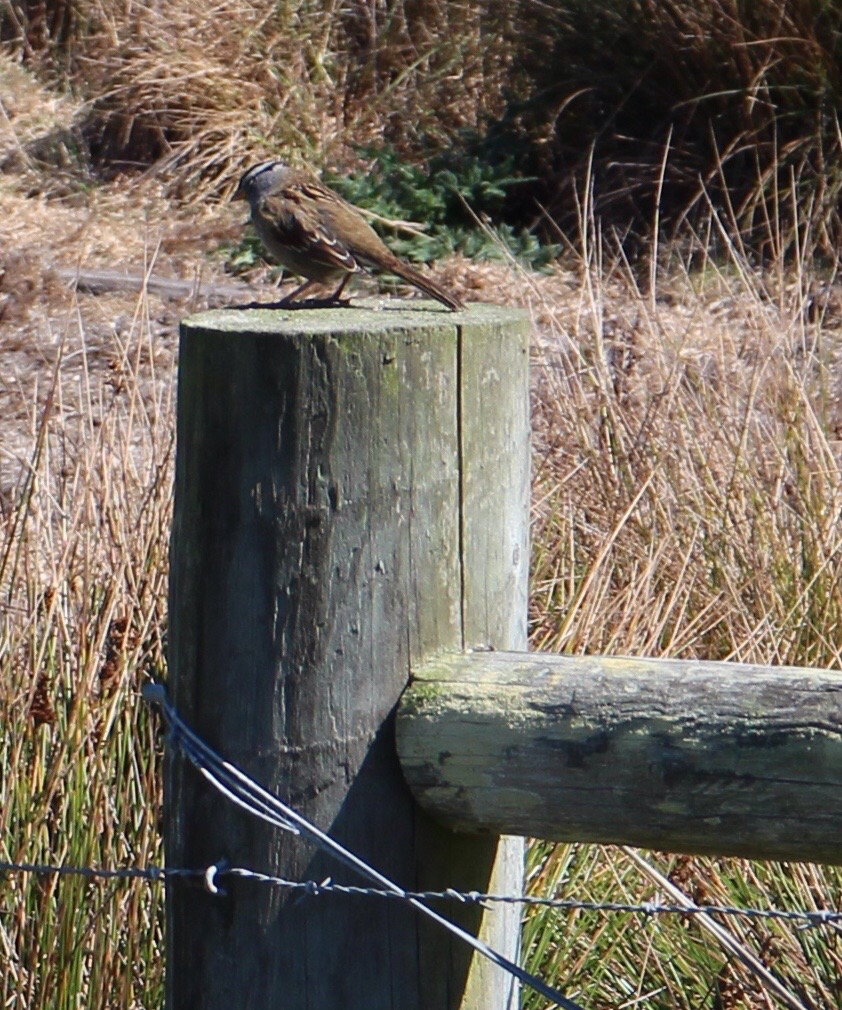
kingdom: Animalia
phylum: Chordata
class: Aves
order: Passeriformes
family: Passerellidae
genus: Zonotrichia
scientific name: Zonotrichia leucophrys
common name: White-crowned sparrow
